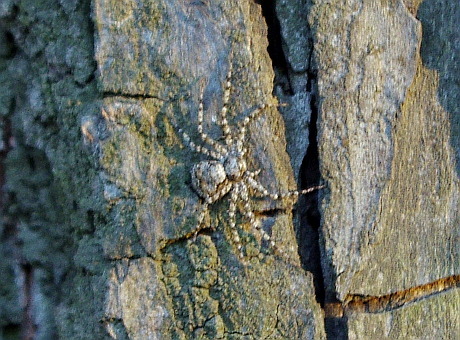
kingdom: Animalia
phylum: Arthropoda
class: Arachnida
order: Araneae
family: Philodromidae
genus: Philodromus
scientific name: Philodromus
